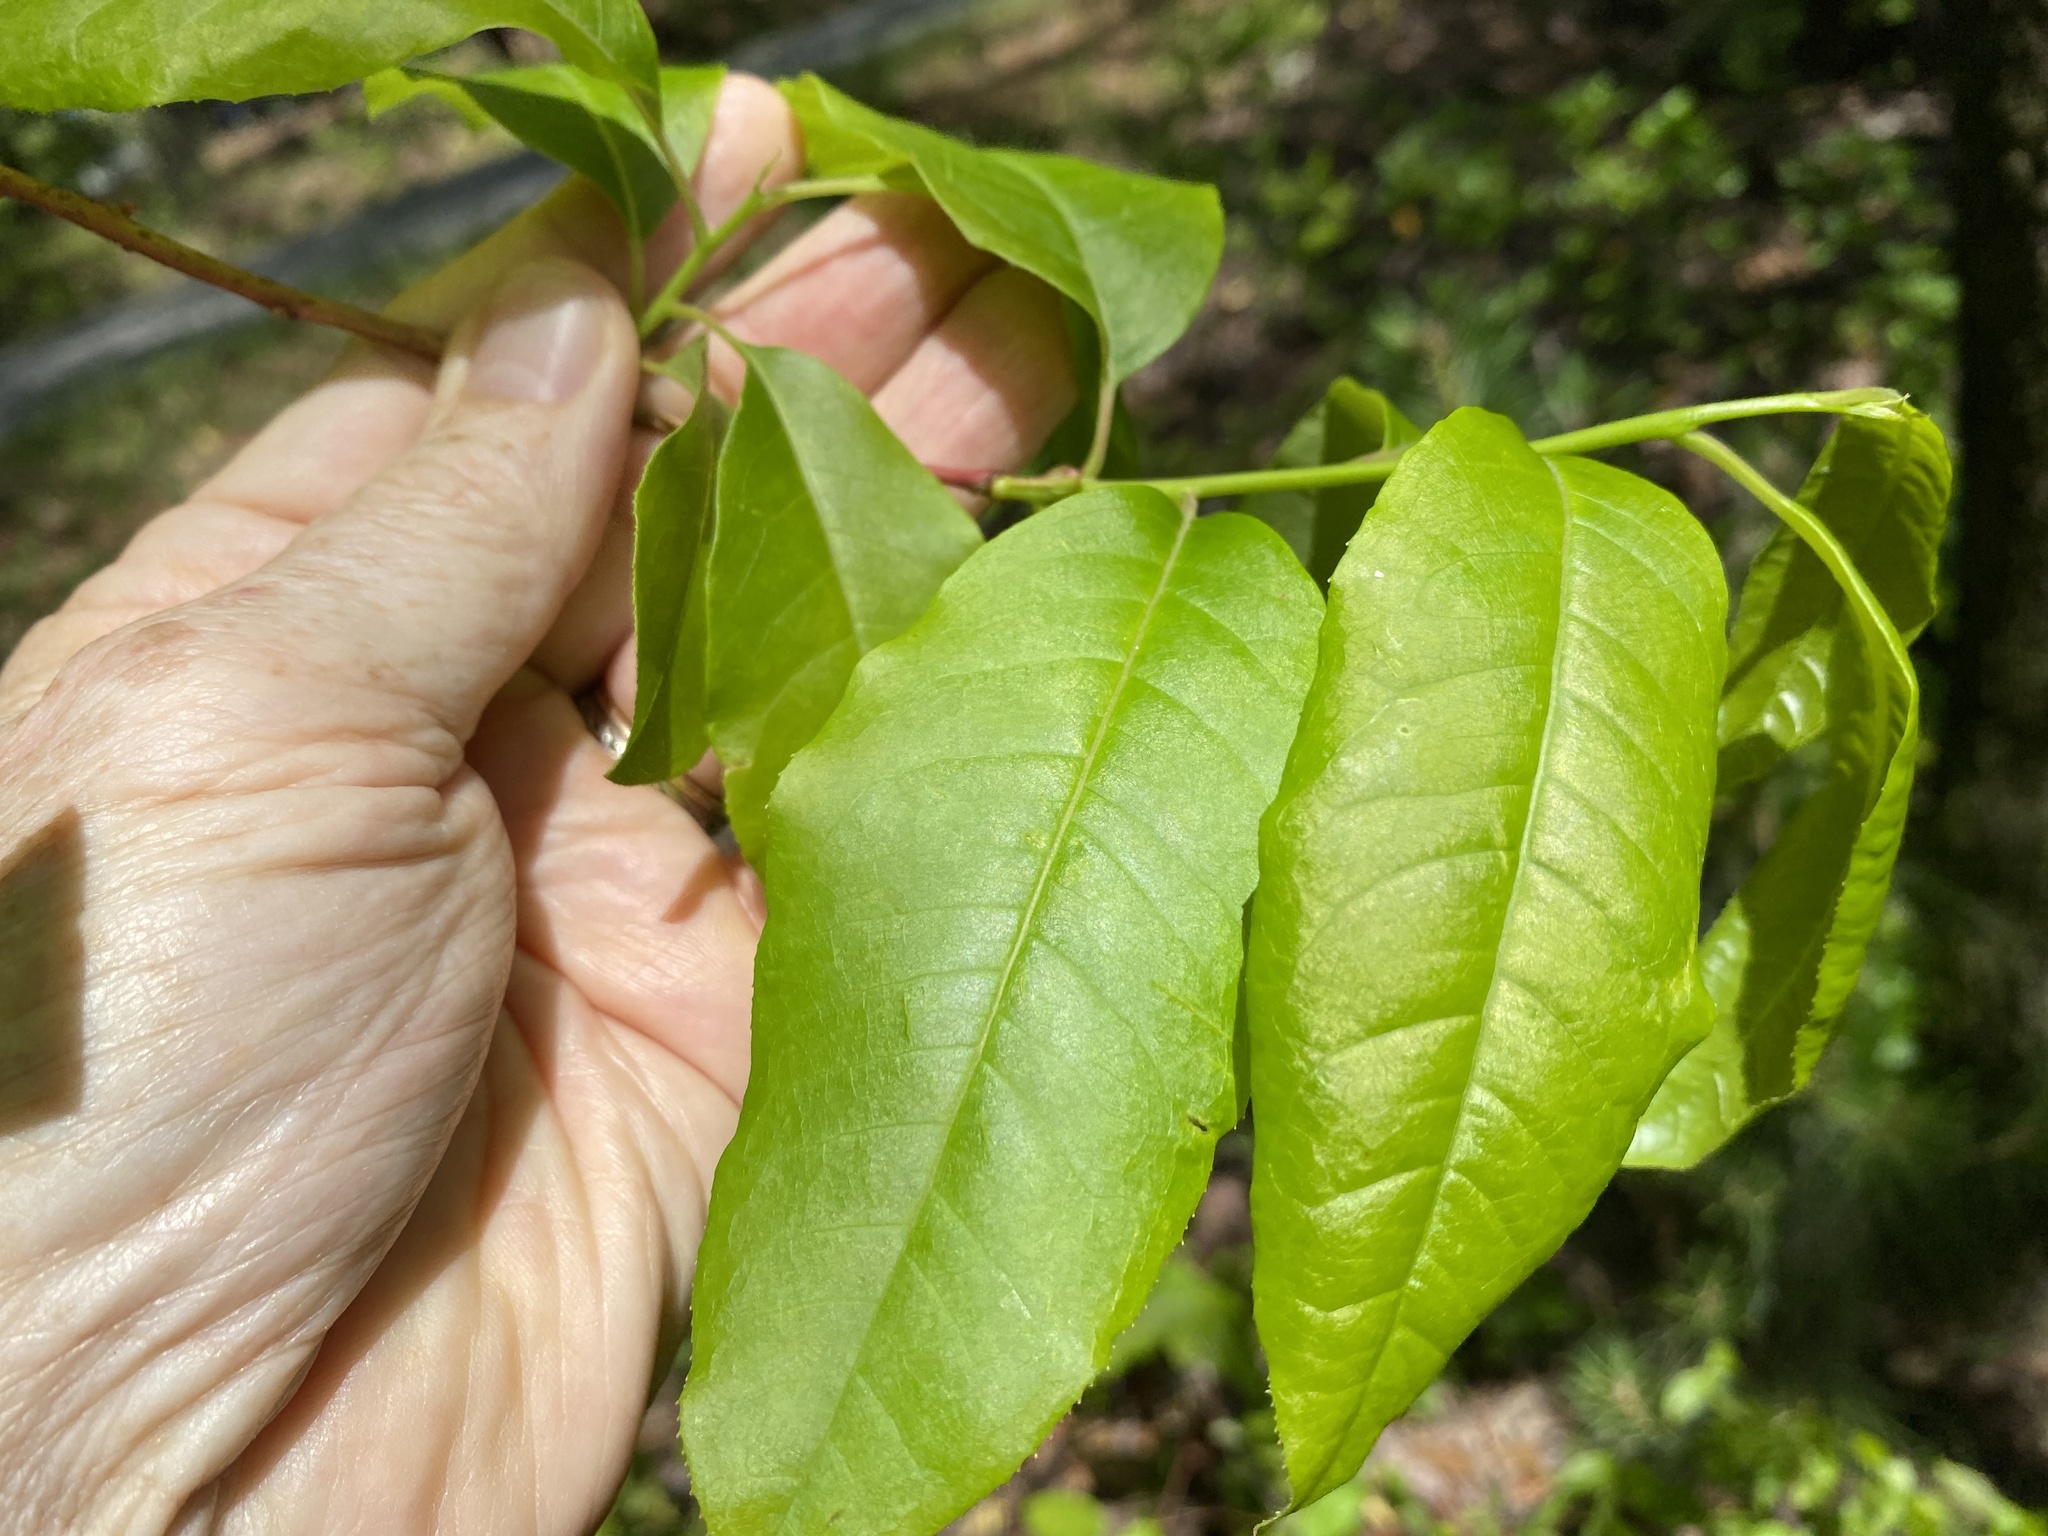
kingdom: Plantae
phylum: Tracheophyta
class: Magnoliopsida
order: Ericales
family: Ericaceae
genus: Oxydendrum
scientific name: Oxydendrum arboreum
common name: Sourwood
